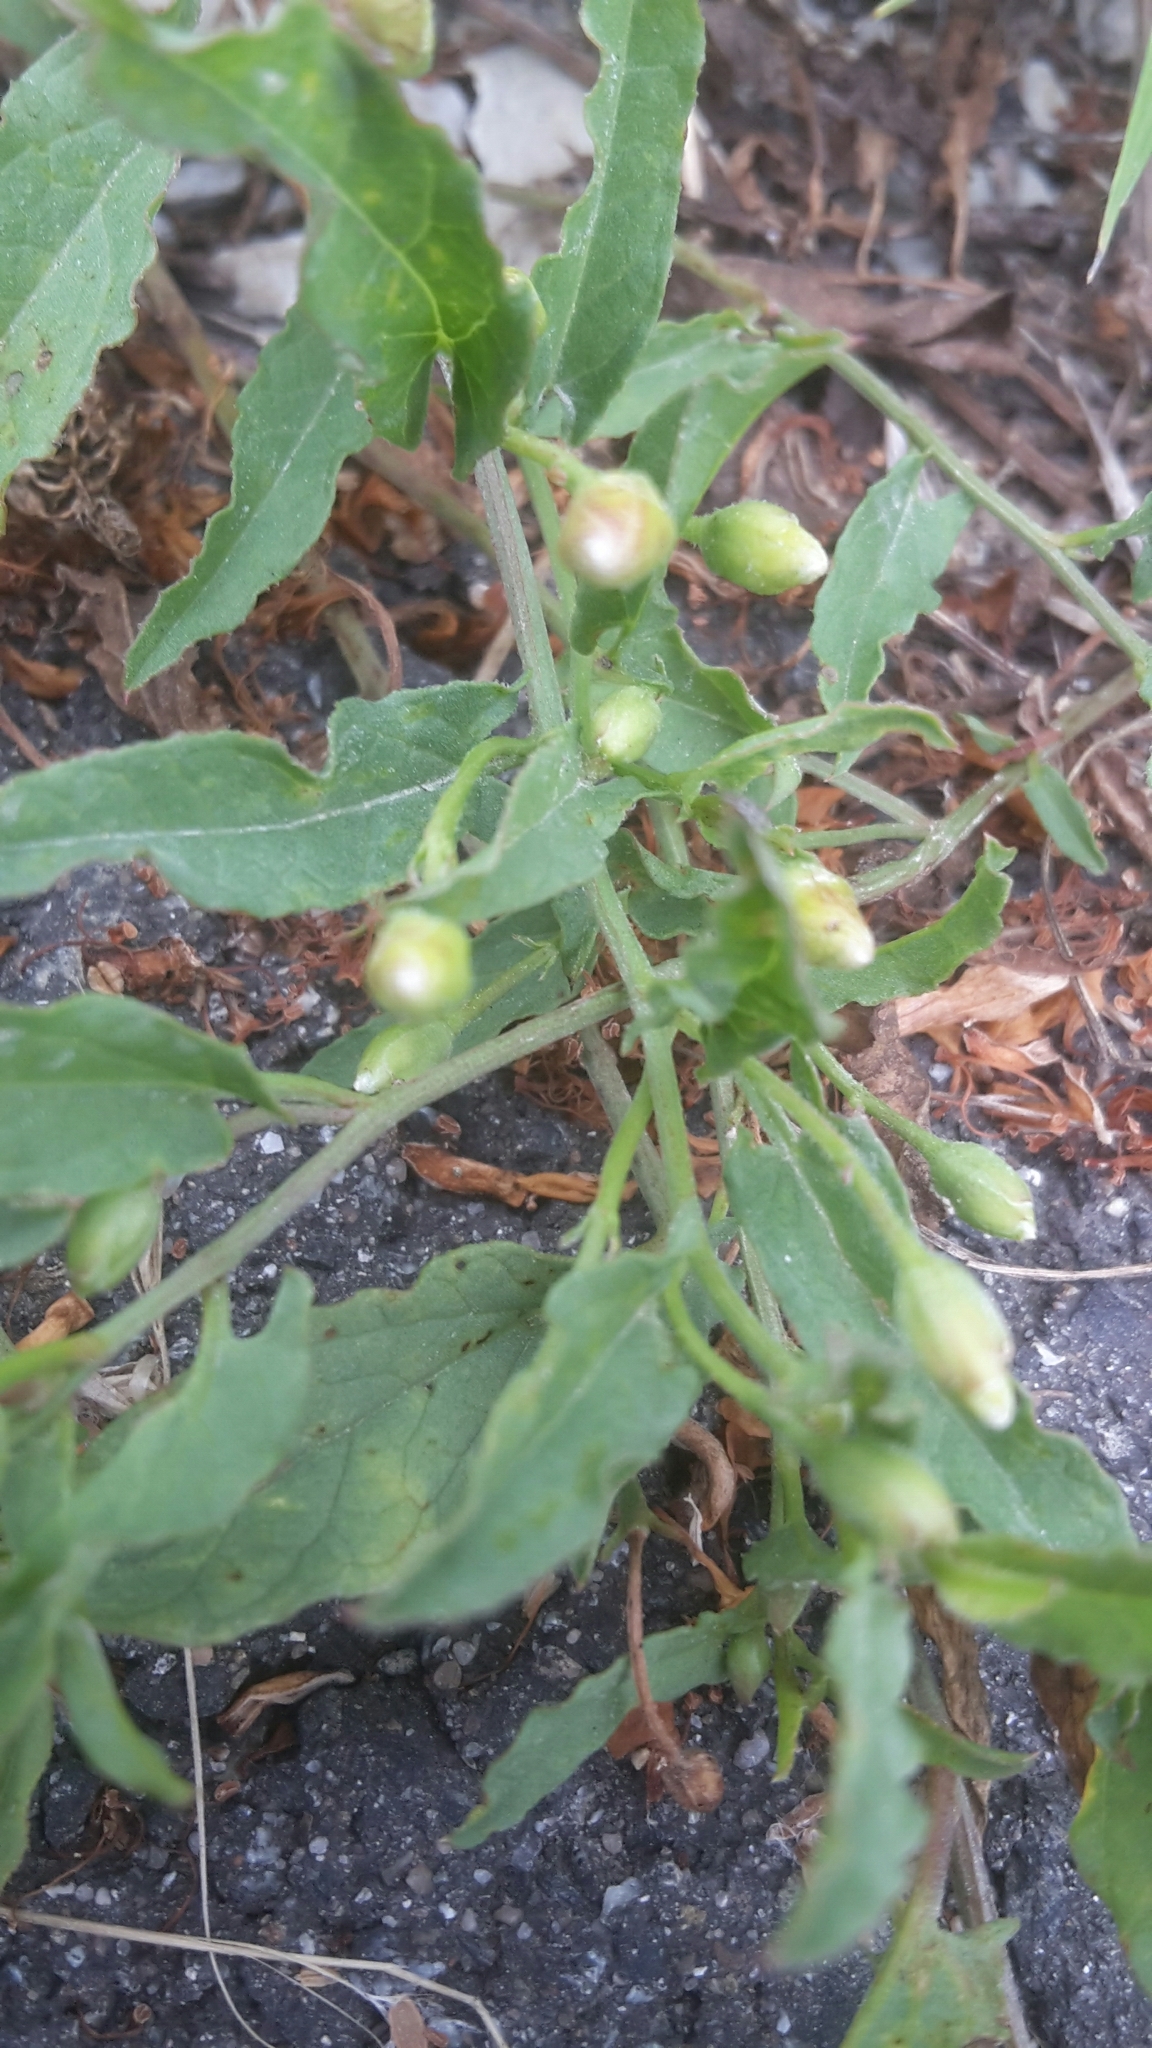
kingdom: Plantae
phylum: Tracheophyta
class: Magnoliopsida
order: Solanales
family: Convolvulaceae
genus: Convolvulus
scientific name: Convolvulus arvensis
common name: Field bindweed
